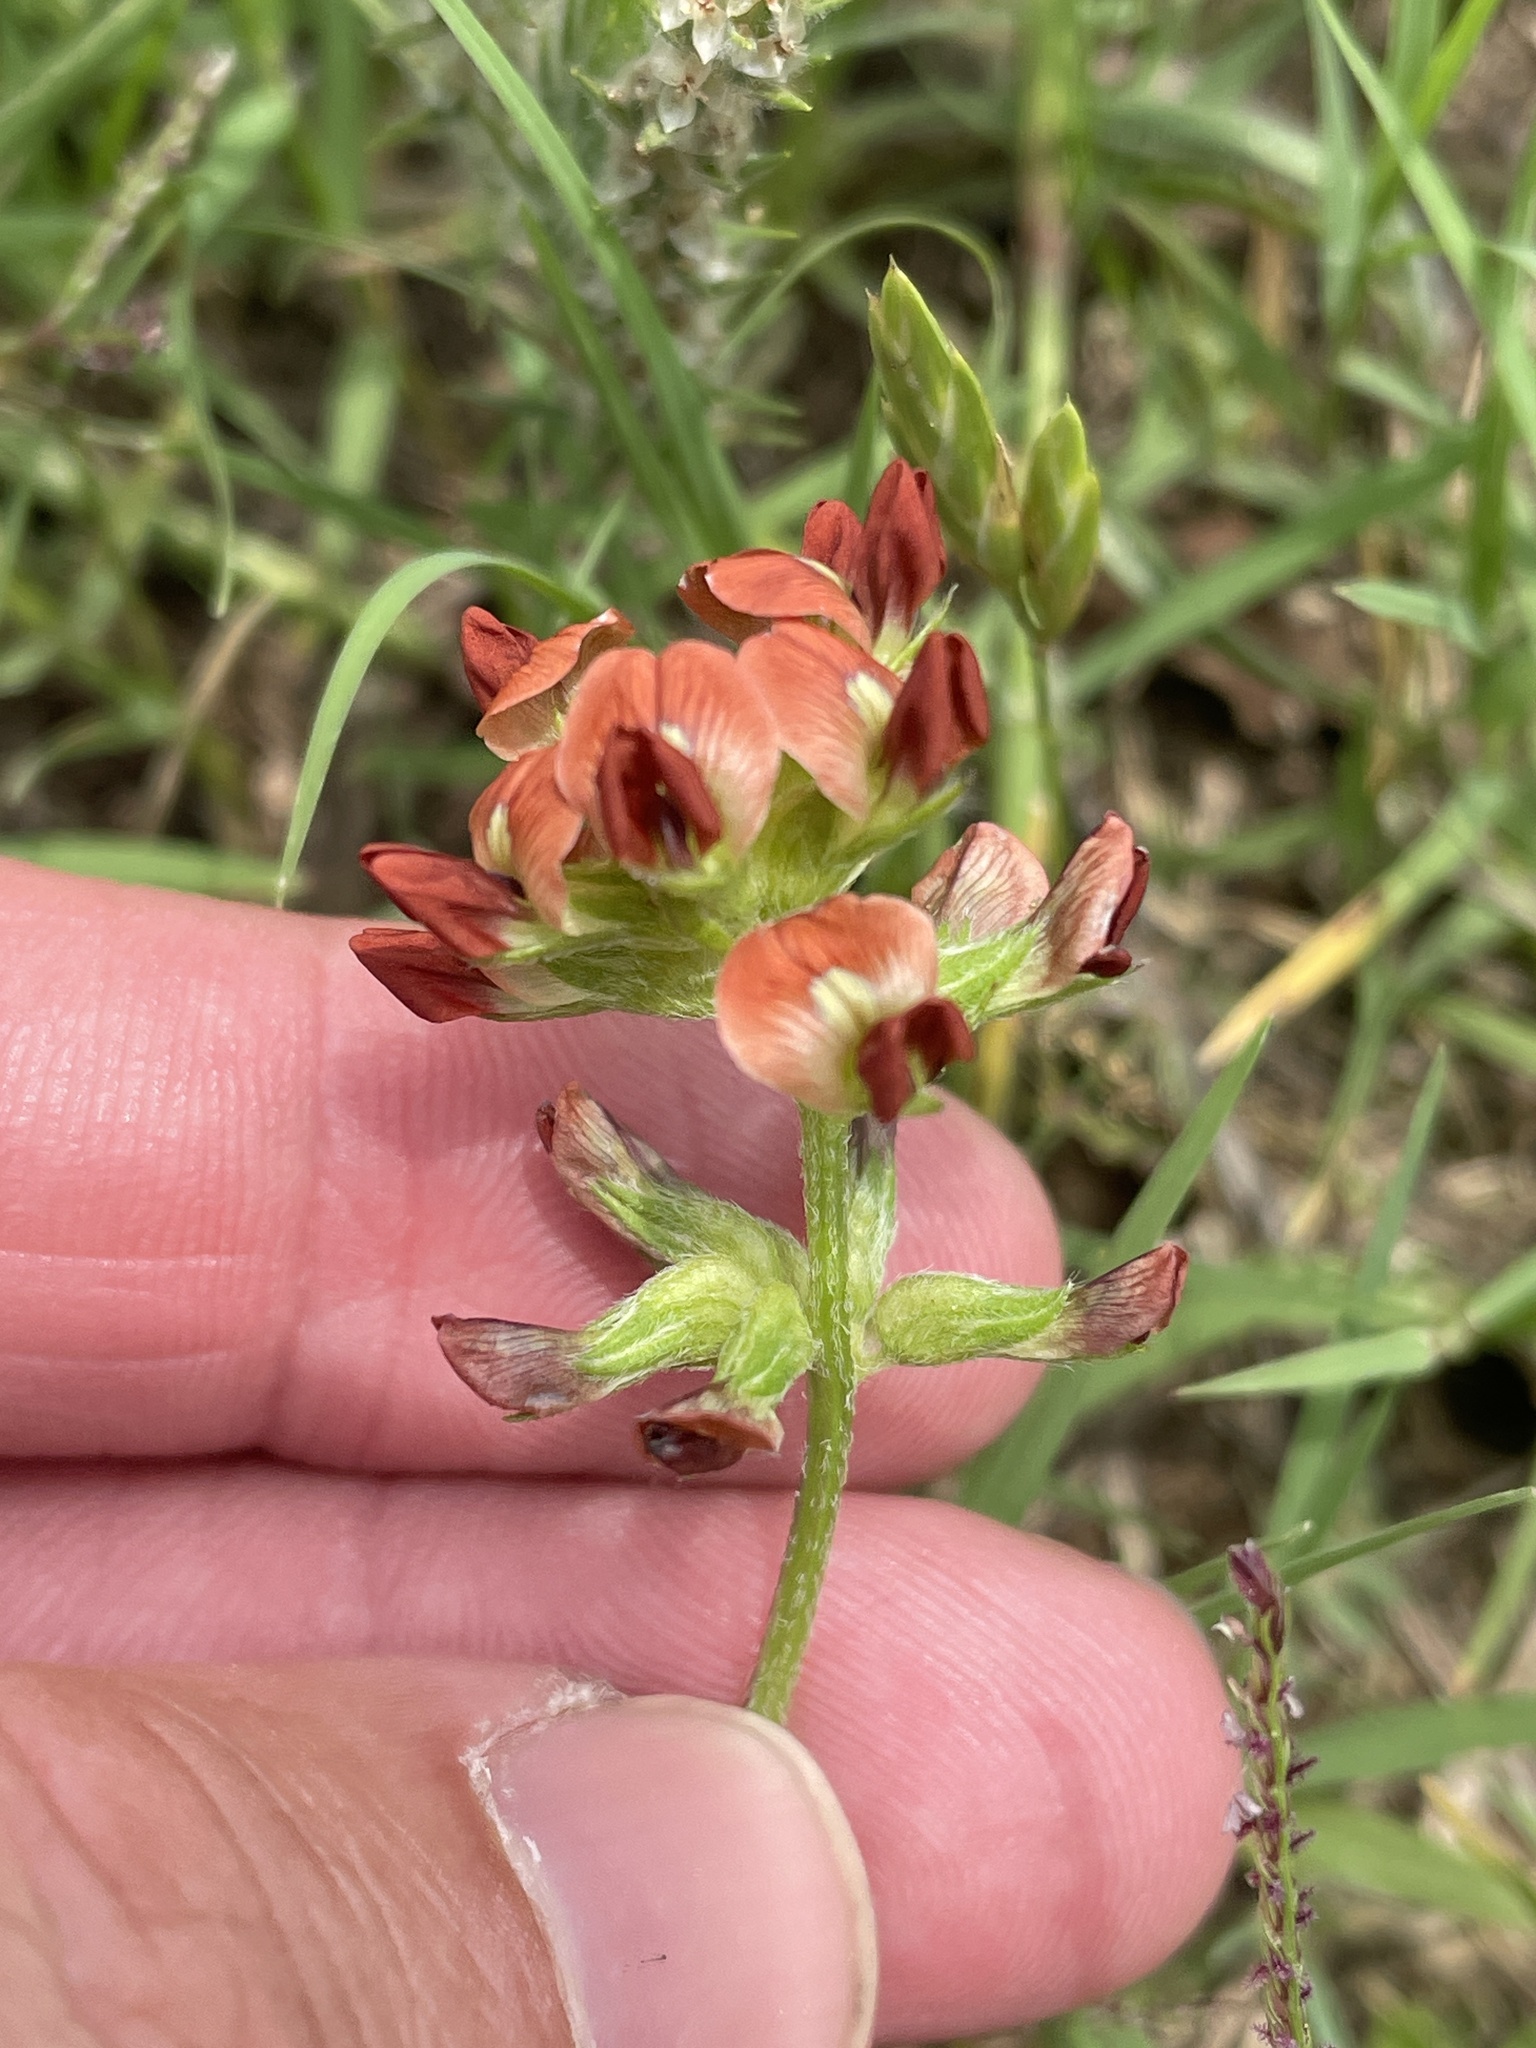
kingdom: Plantae
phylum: Tracheophyta
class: Magnoliopsida
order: Fabales
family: Fabaceae
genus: Pediomelum
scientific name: Pediomelum rhombifolium
